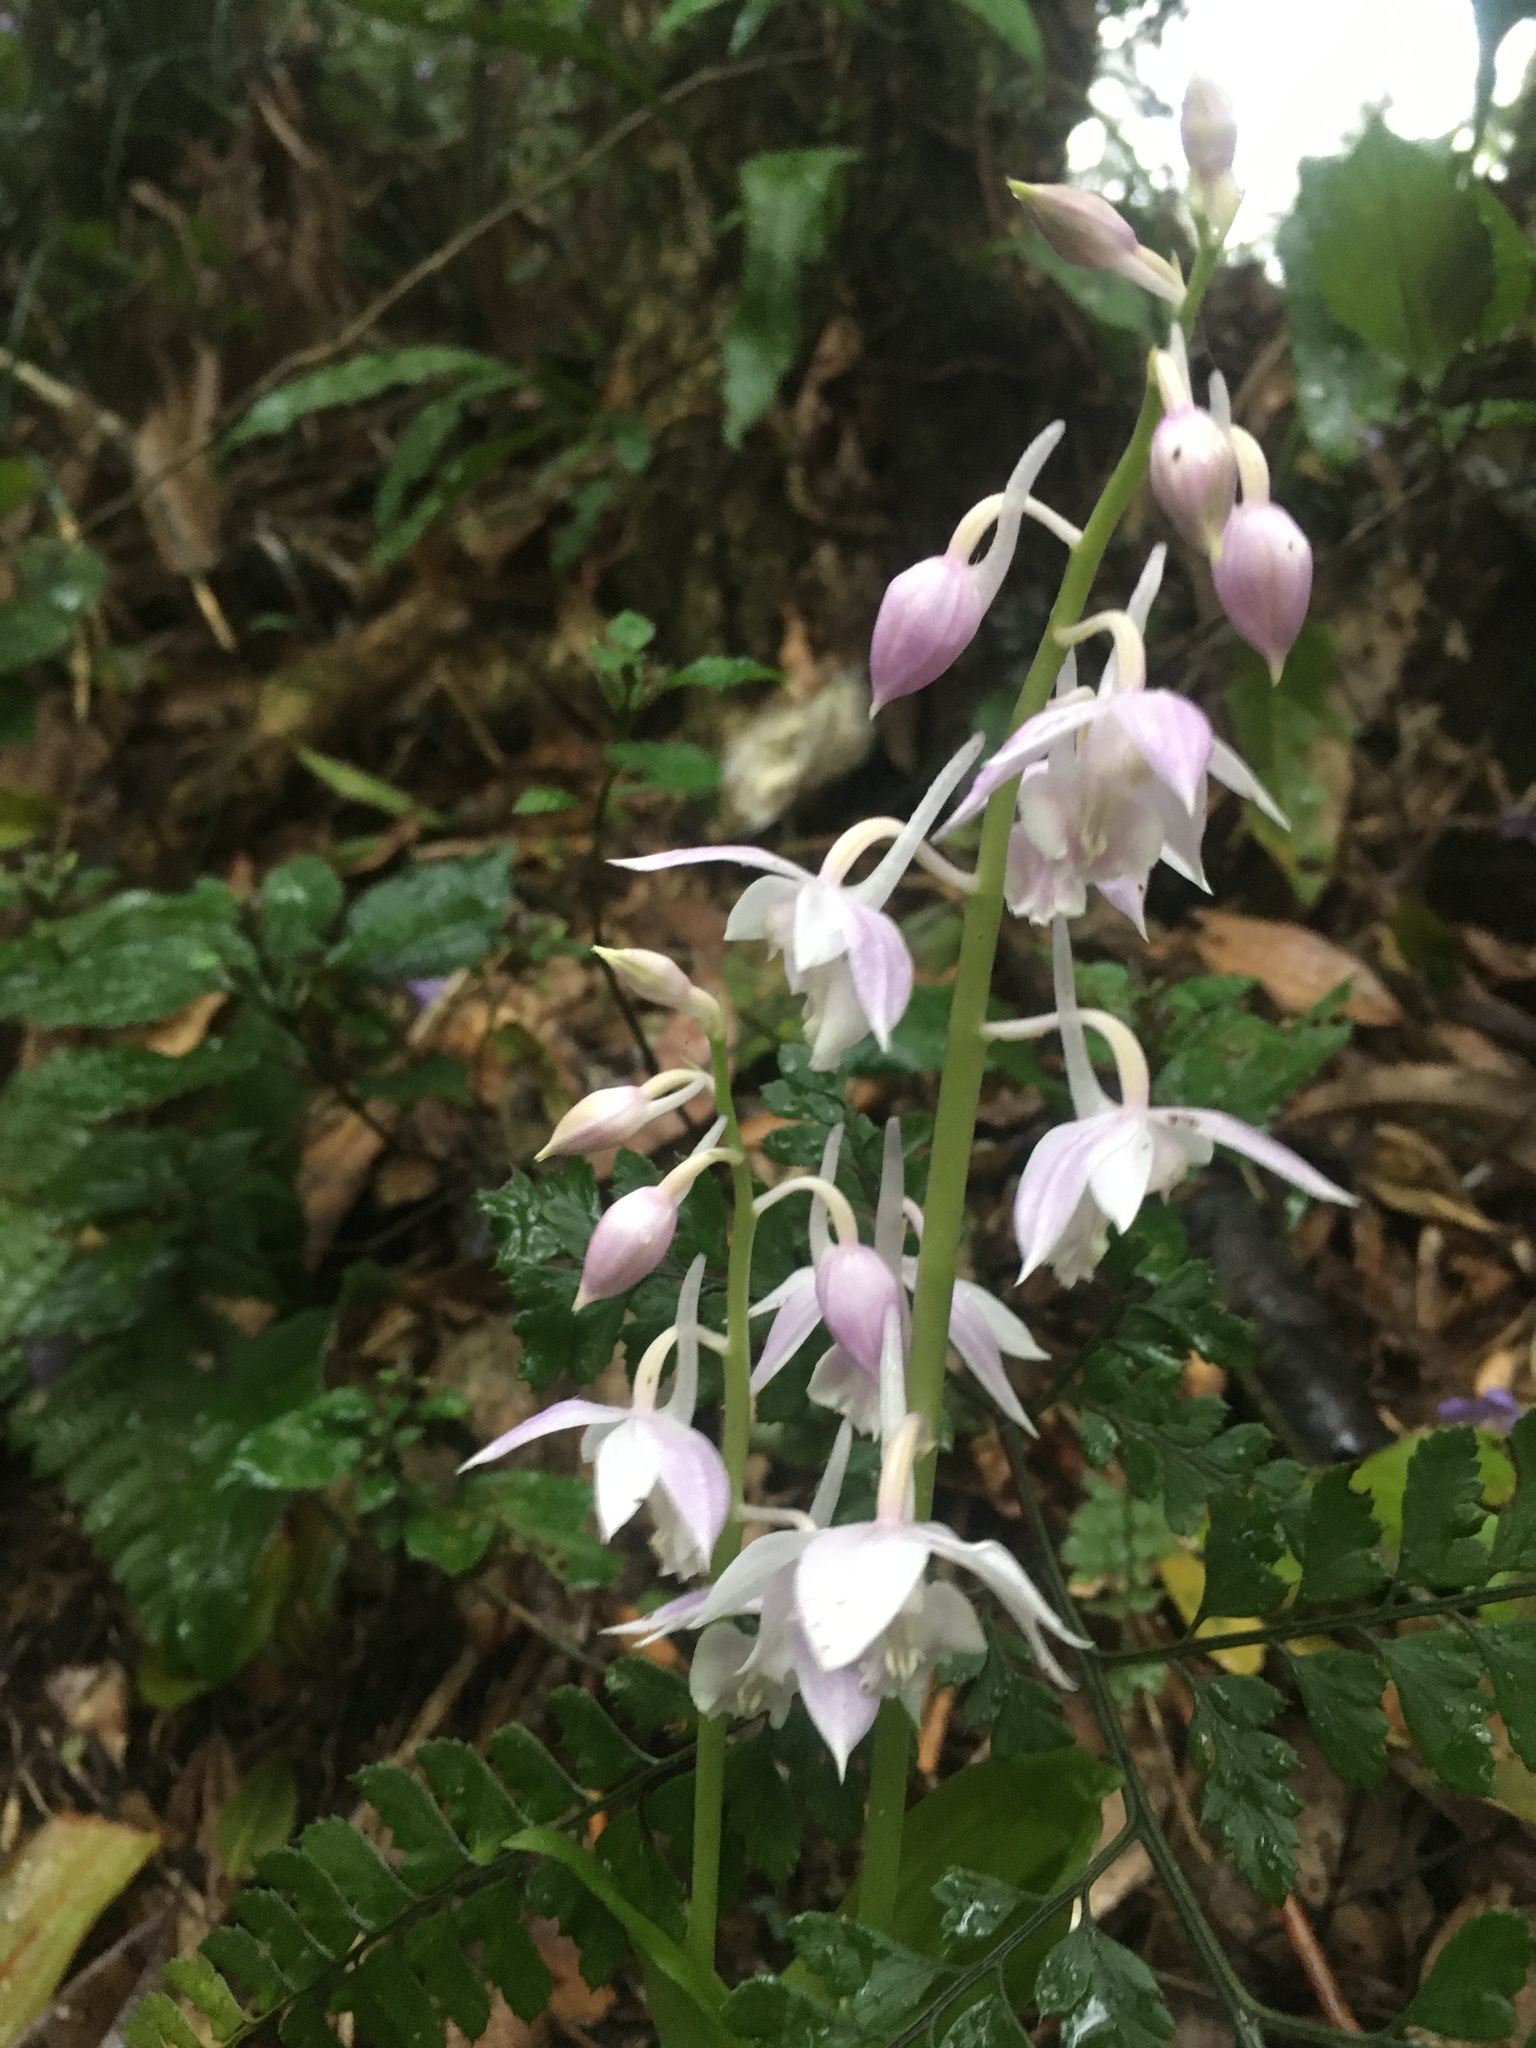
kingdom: Plantae
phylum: Tracheophyta
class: Liliopsida
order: Asparagales
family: Orchidaceae
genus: Calanthe
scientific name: Calanthe aristulifera
